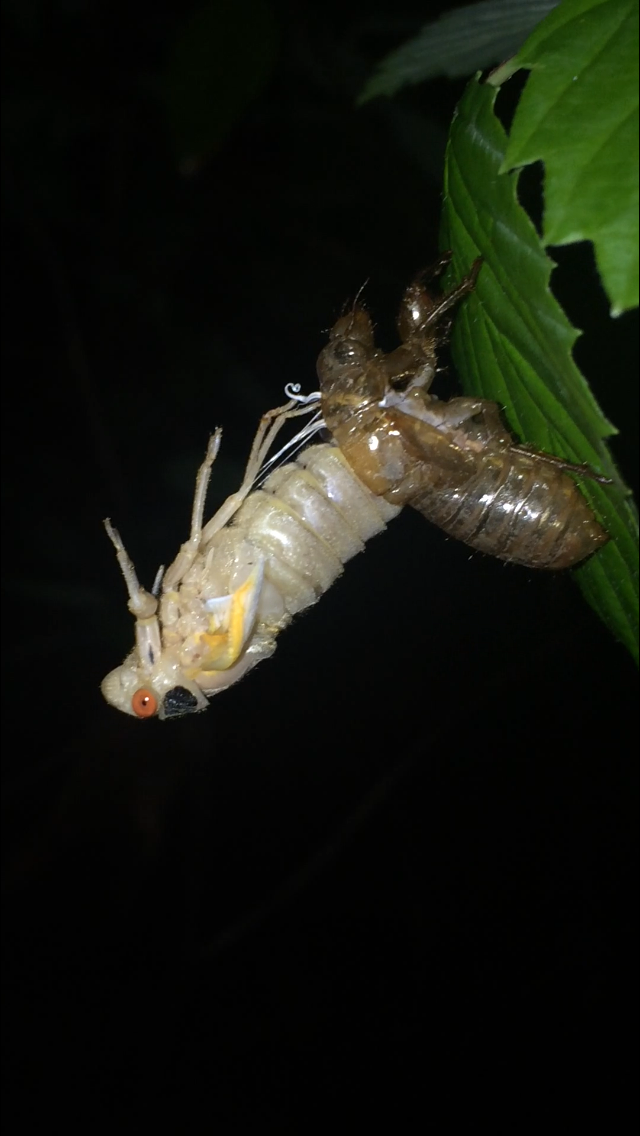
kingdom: Animalia
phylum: Arthropoda
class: Insecta
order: Hemiptera
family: Cicadidae
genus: Magicicada
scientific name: Magicicada septendecim
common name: Periodical cicada
